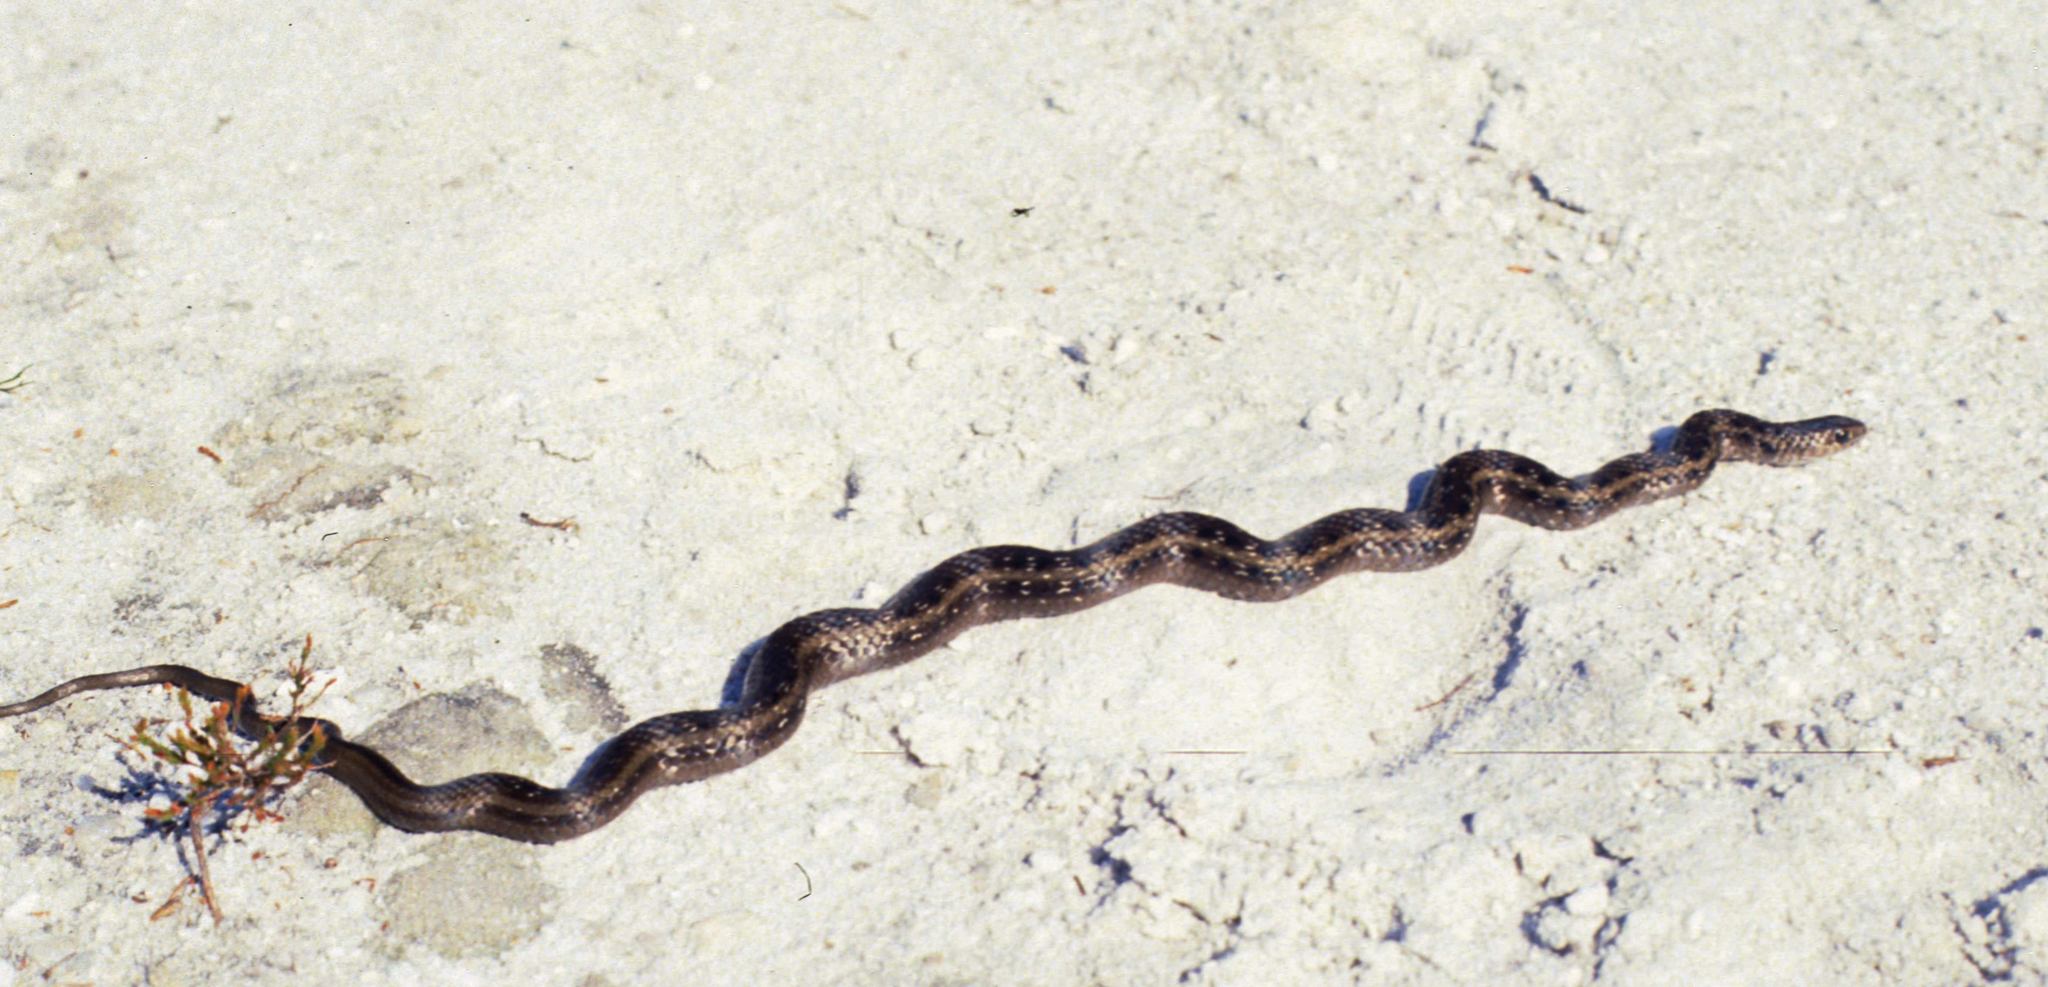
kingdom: Animalia
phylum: Chordata
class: Squamata
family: Pseudoxyrhophiidae
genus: Amplorhinus
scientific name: Amplorhinus multimaculatus
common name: Many-spotted snake
